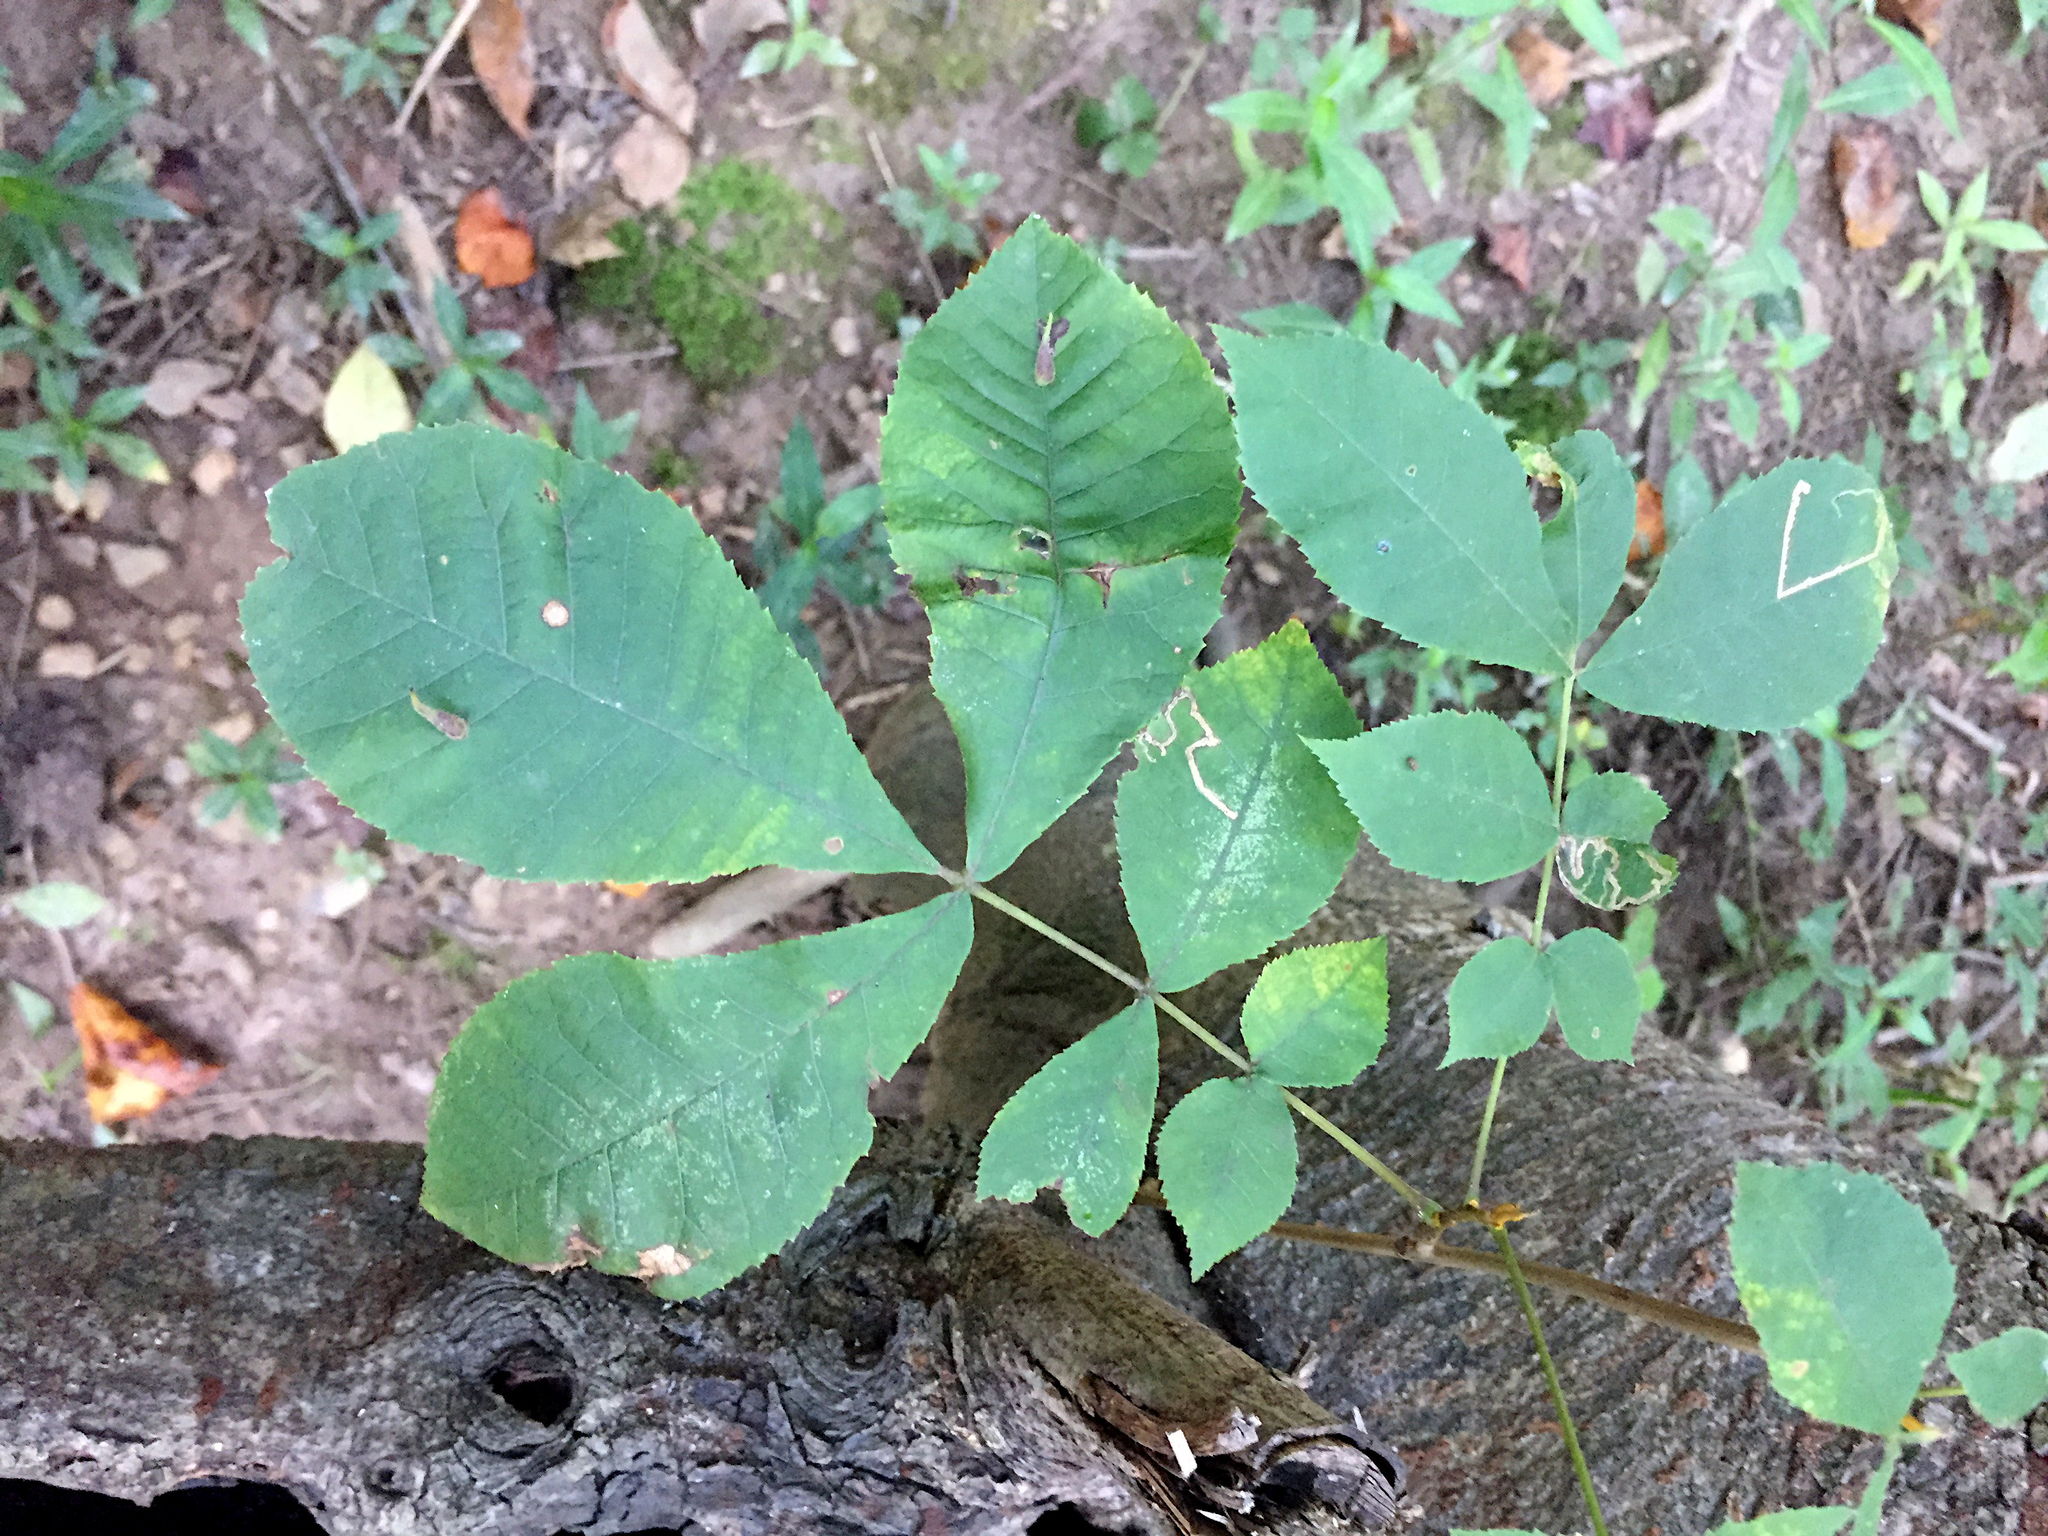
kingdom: Animalia
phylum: Arthropoda
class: Insecta
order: Diptera
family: Cecidomyiidae
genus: Caryomyia
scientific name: Caryomyia spinulosa
